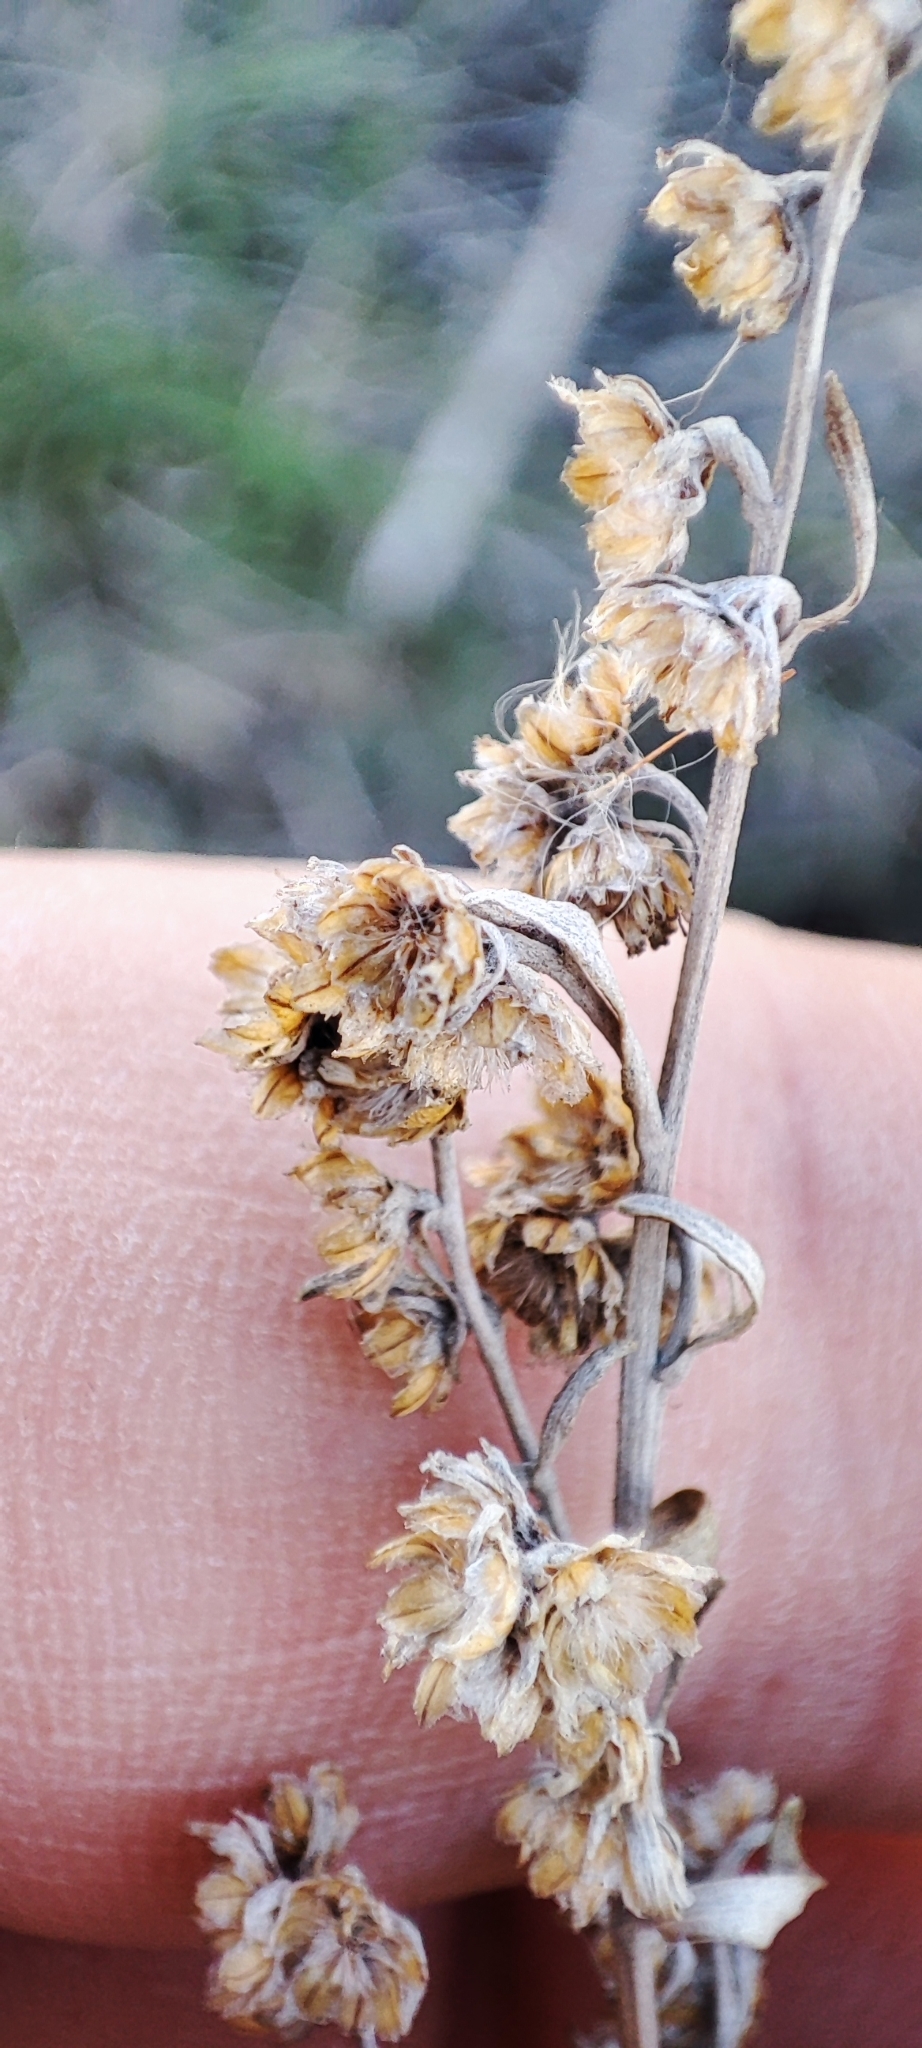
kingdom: Plantae
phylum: Tracheophyta
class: Magnoliopsida
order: Asterales
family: Asteraceae
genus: Artemisia
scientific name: Artemisia absinthium
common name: Wormwood
